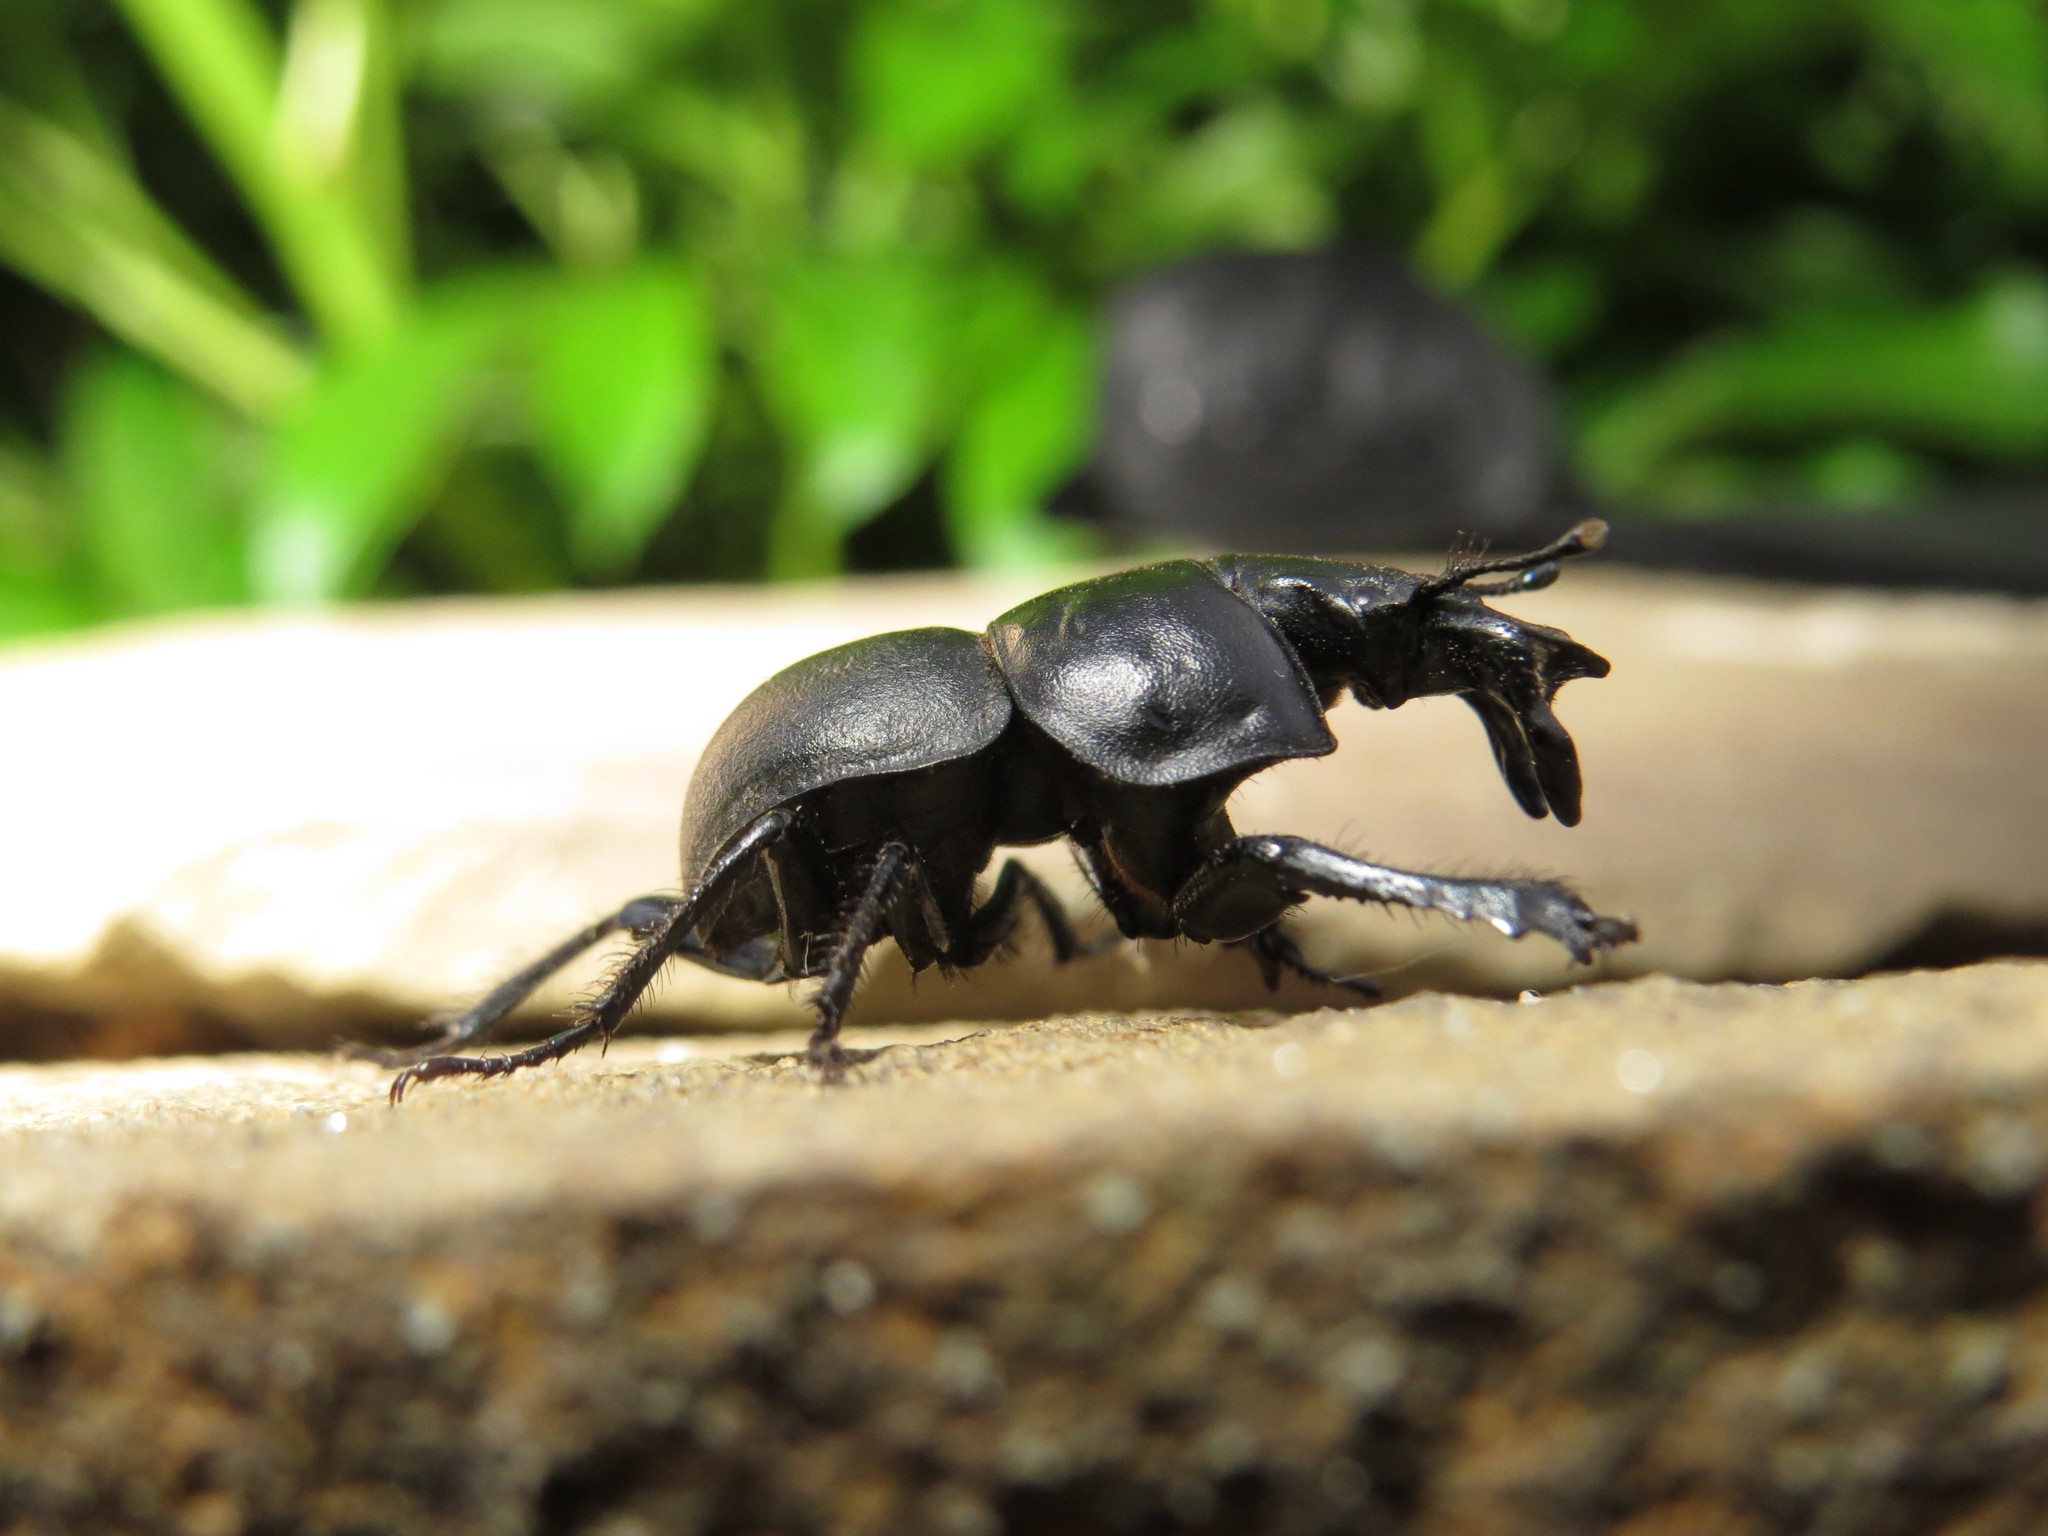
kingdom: Animalia
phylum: Arthropoda
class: Insecta
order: Coleoptera
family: Geotrupidae
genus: Lethrus
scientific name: Lethrus apterus
